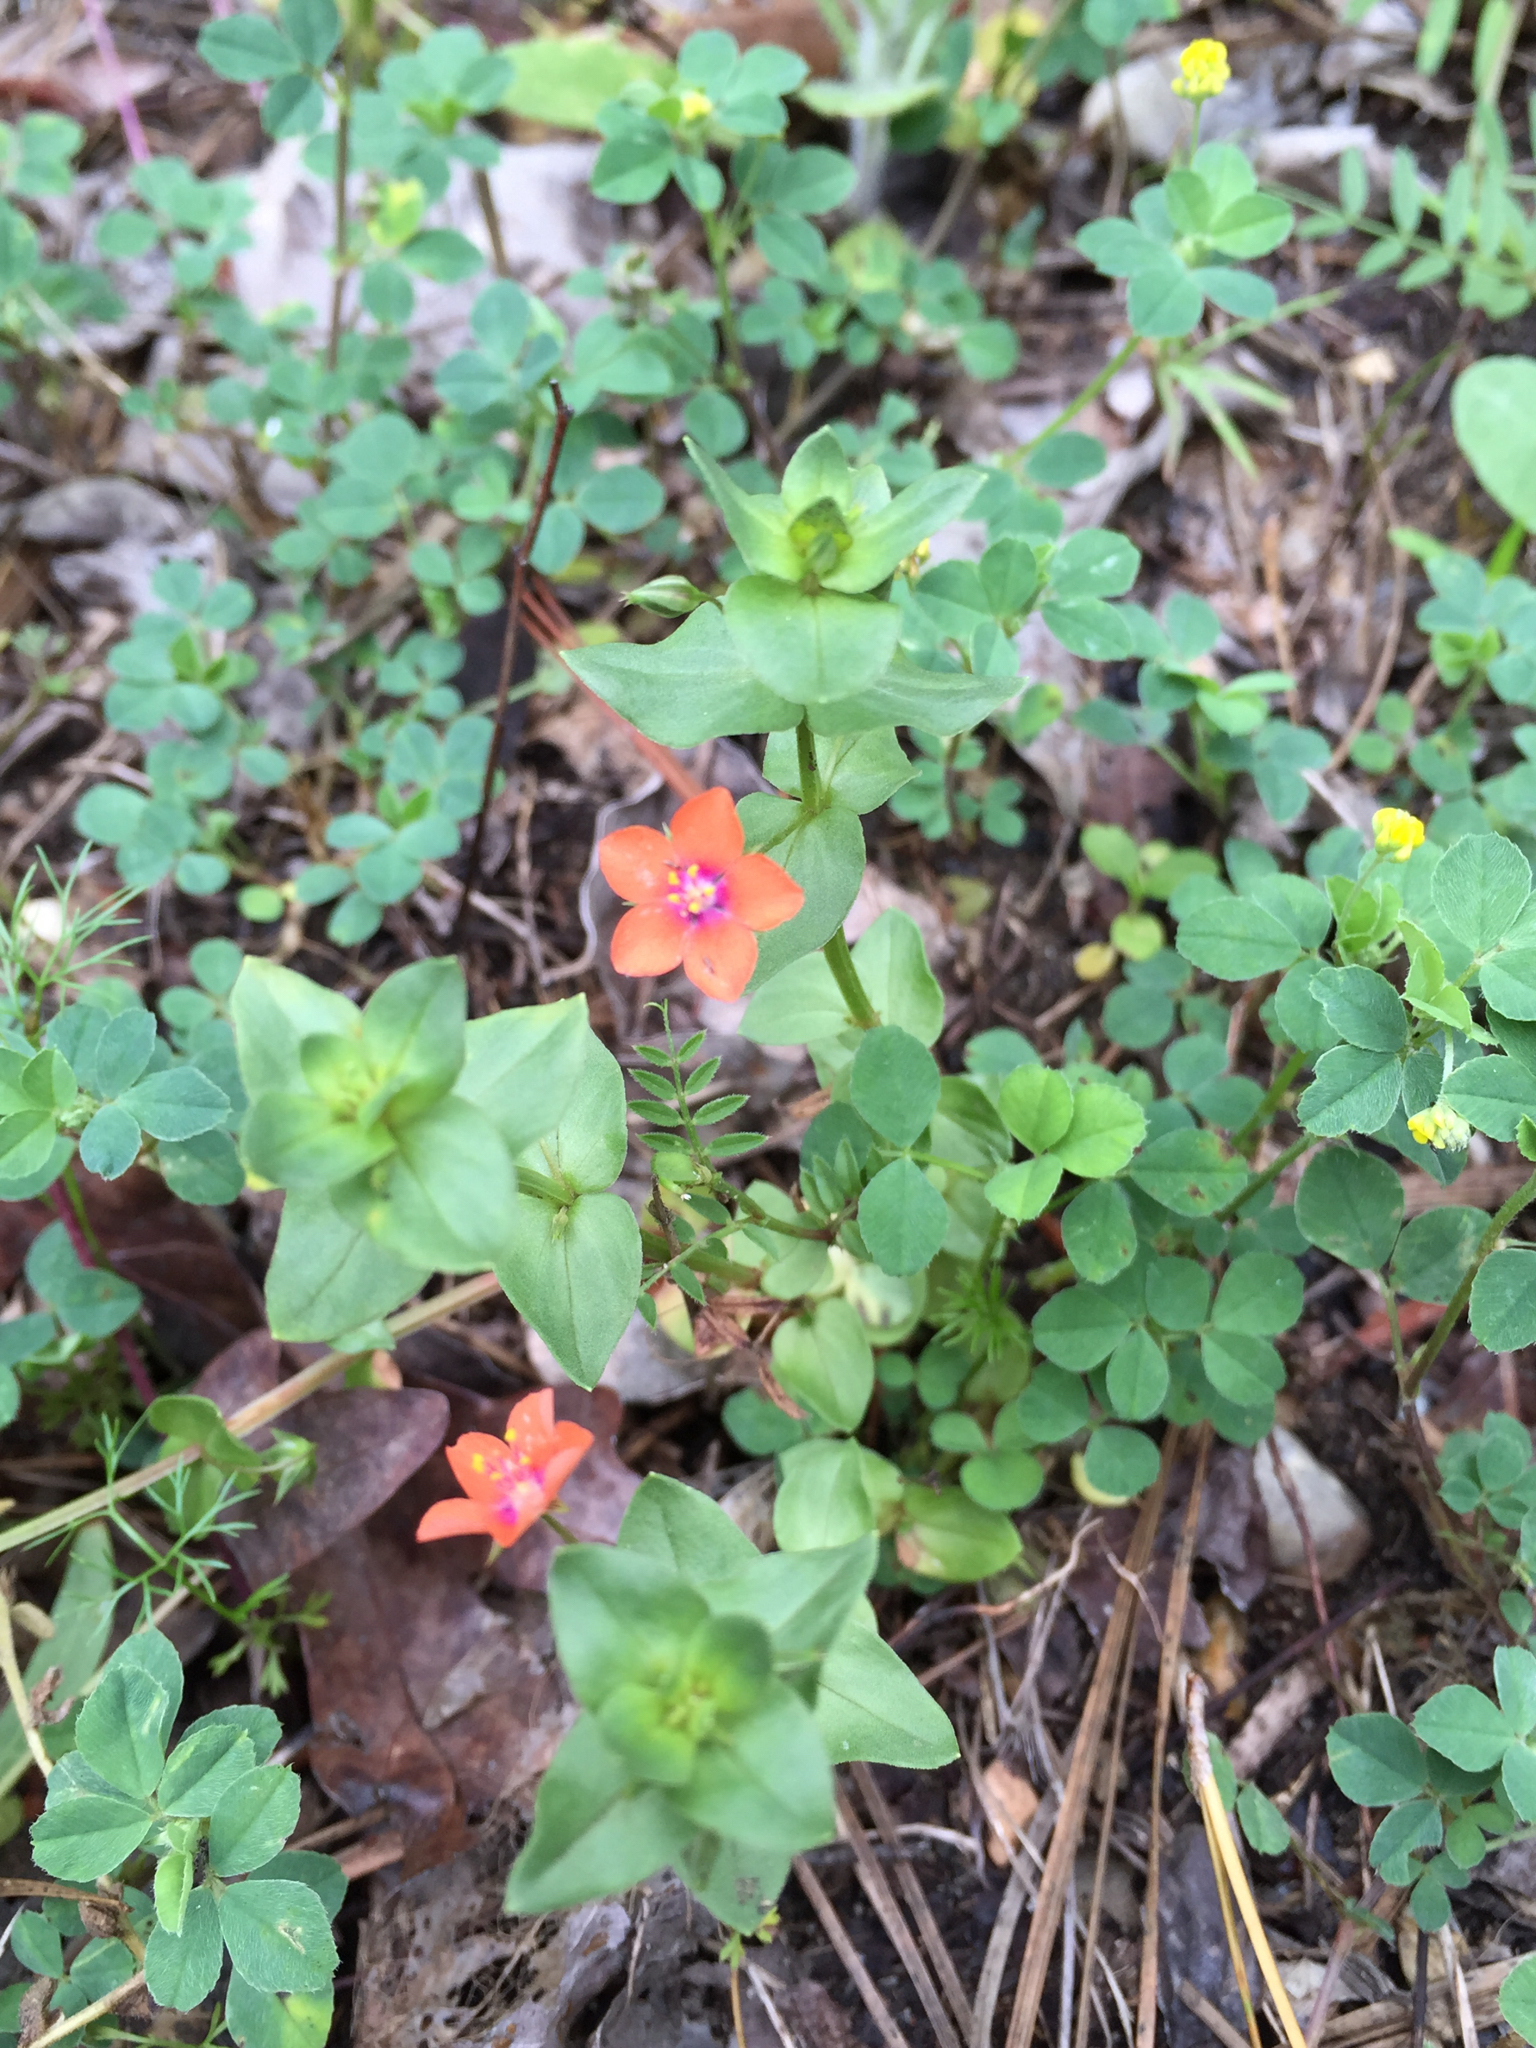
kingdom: Plantae
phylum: Tracheophyta
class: Magnoliopsida
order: Ericales
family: Primulaceae
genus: Lysimachia
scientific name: Lysimachia arvensis
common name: Scarlet pimpernel
